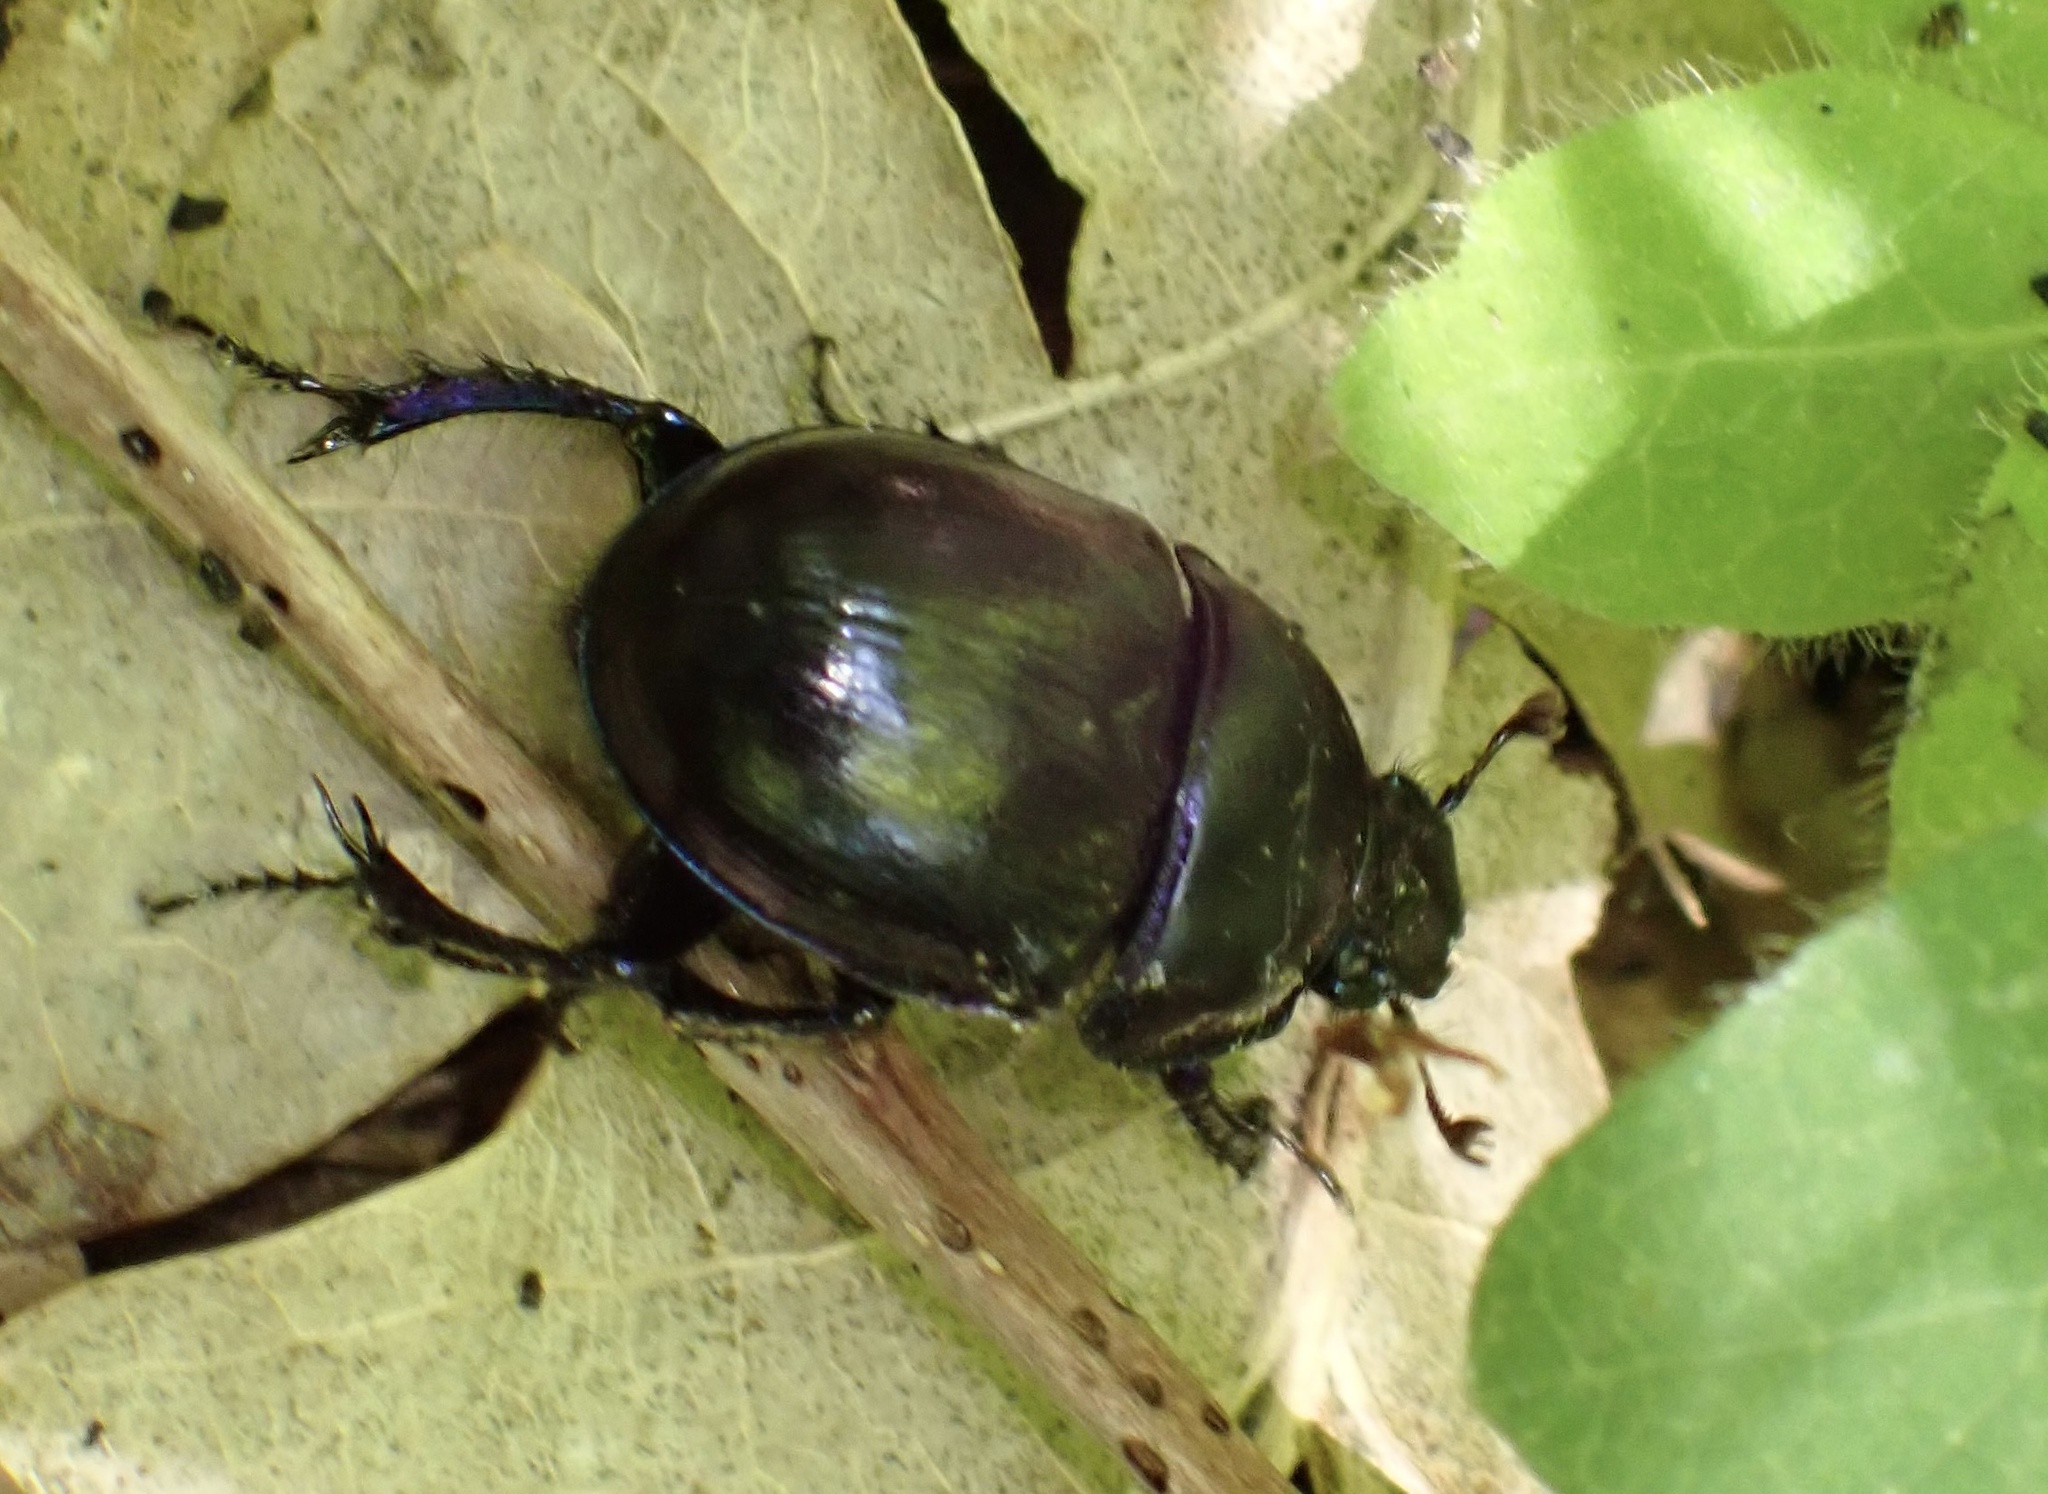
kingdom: Animalia
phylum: Arthropoda
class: Insecta
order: Coleoptera
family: Geotrupidae
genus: Anoplotrupes
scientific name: Anoplotrupes stercorosus
